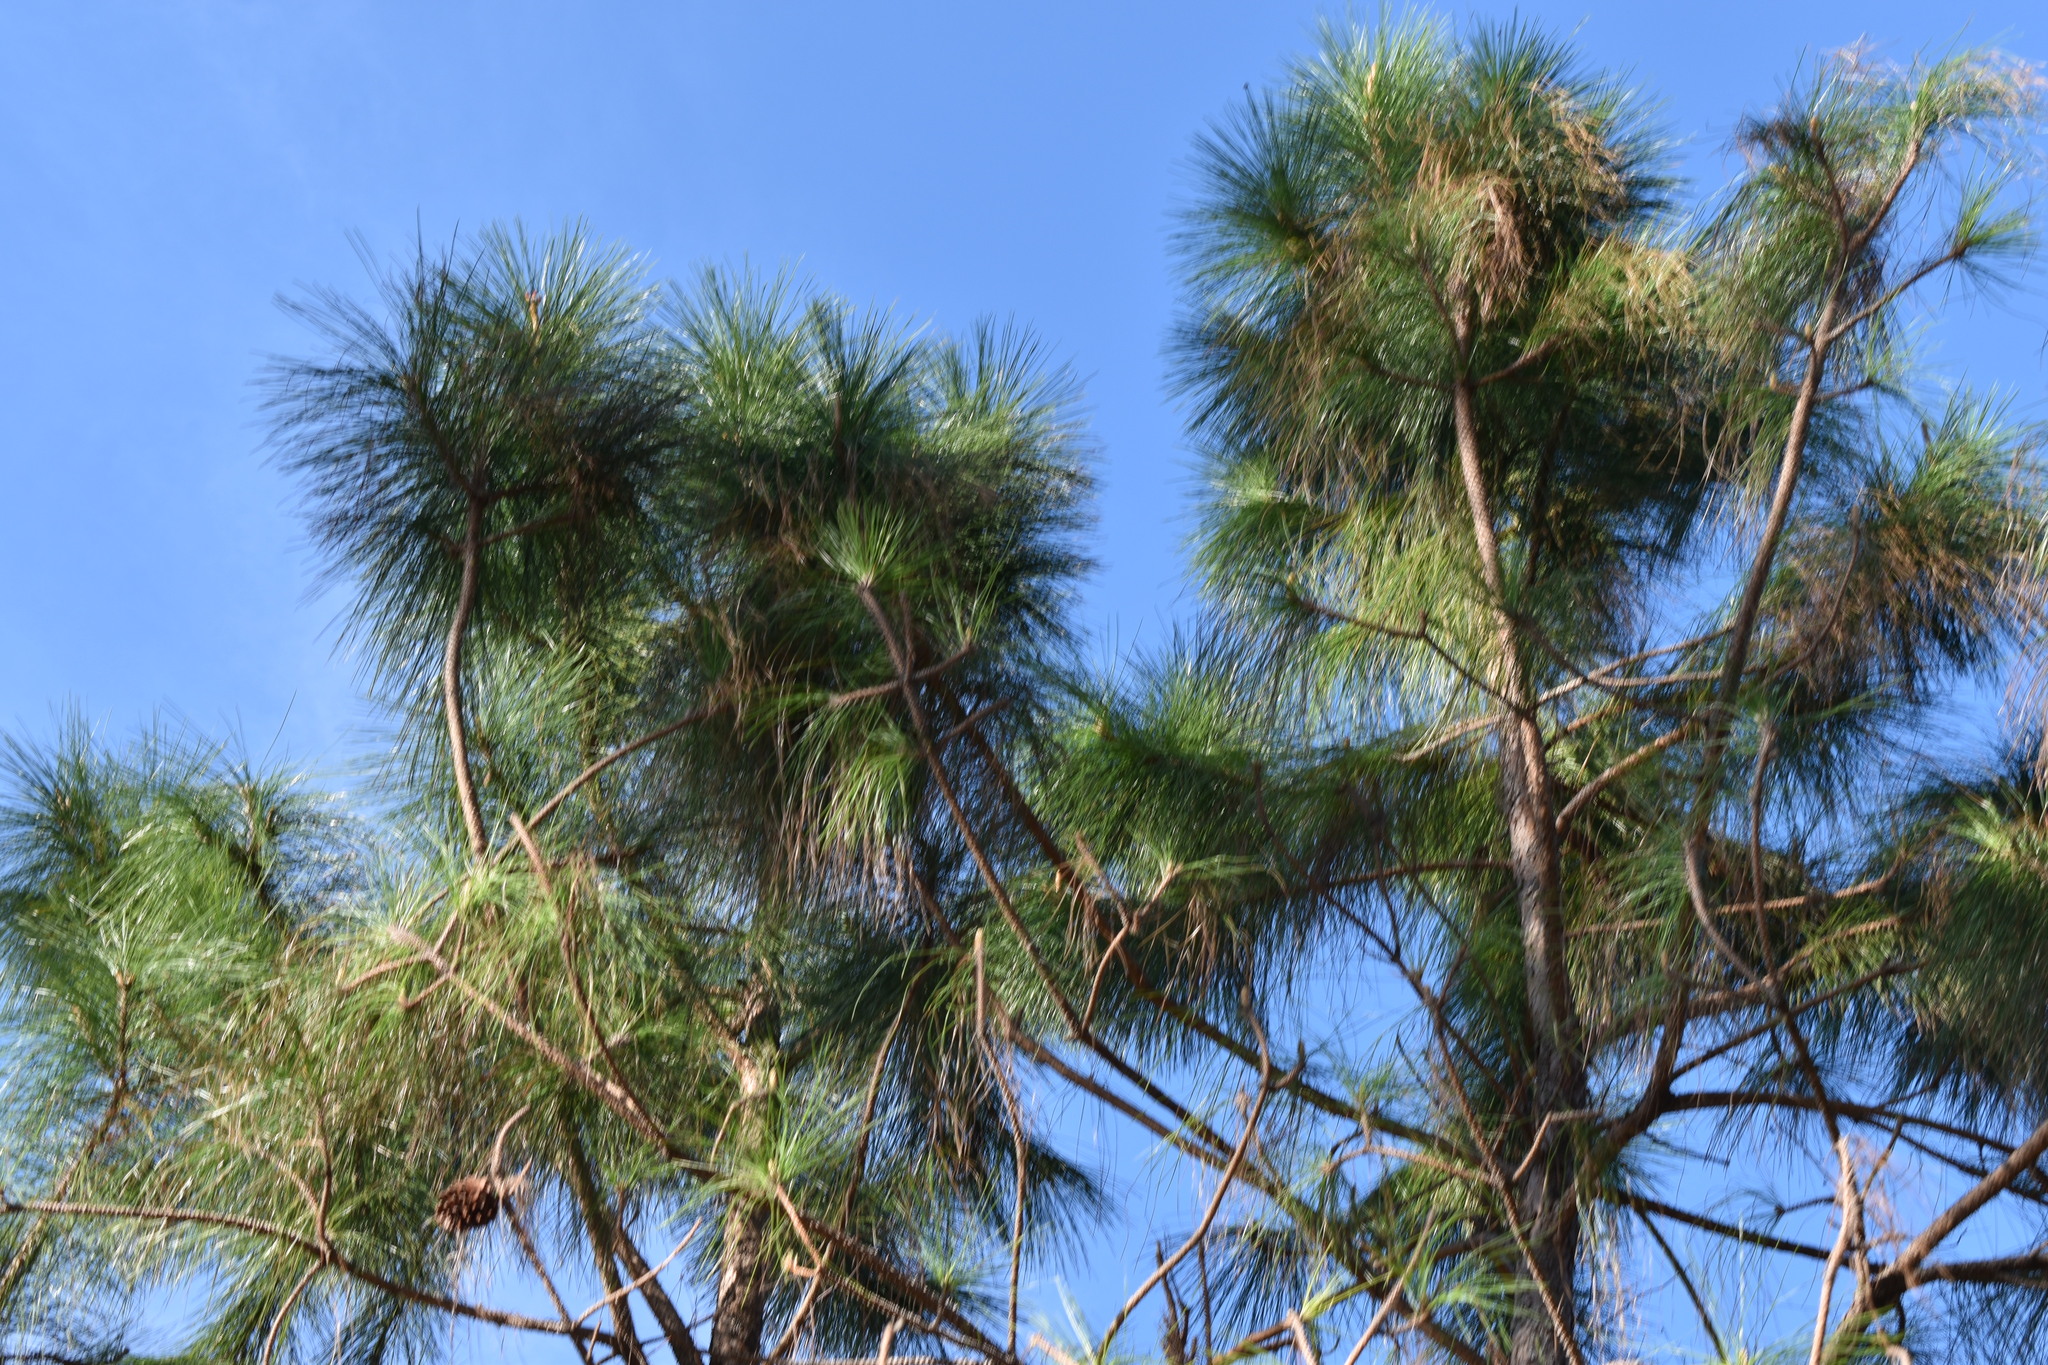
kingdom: Plantae
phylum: Tracheophyta
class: Pinopsida
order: Pinales
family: Pinaceae
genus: Pinus
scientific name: Pinus elliottii
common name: Slash pine
